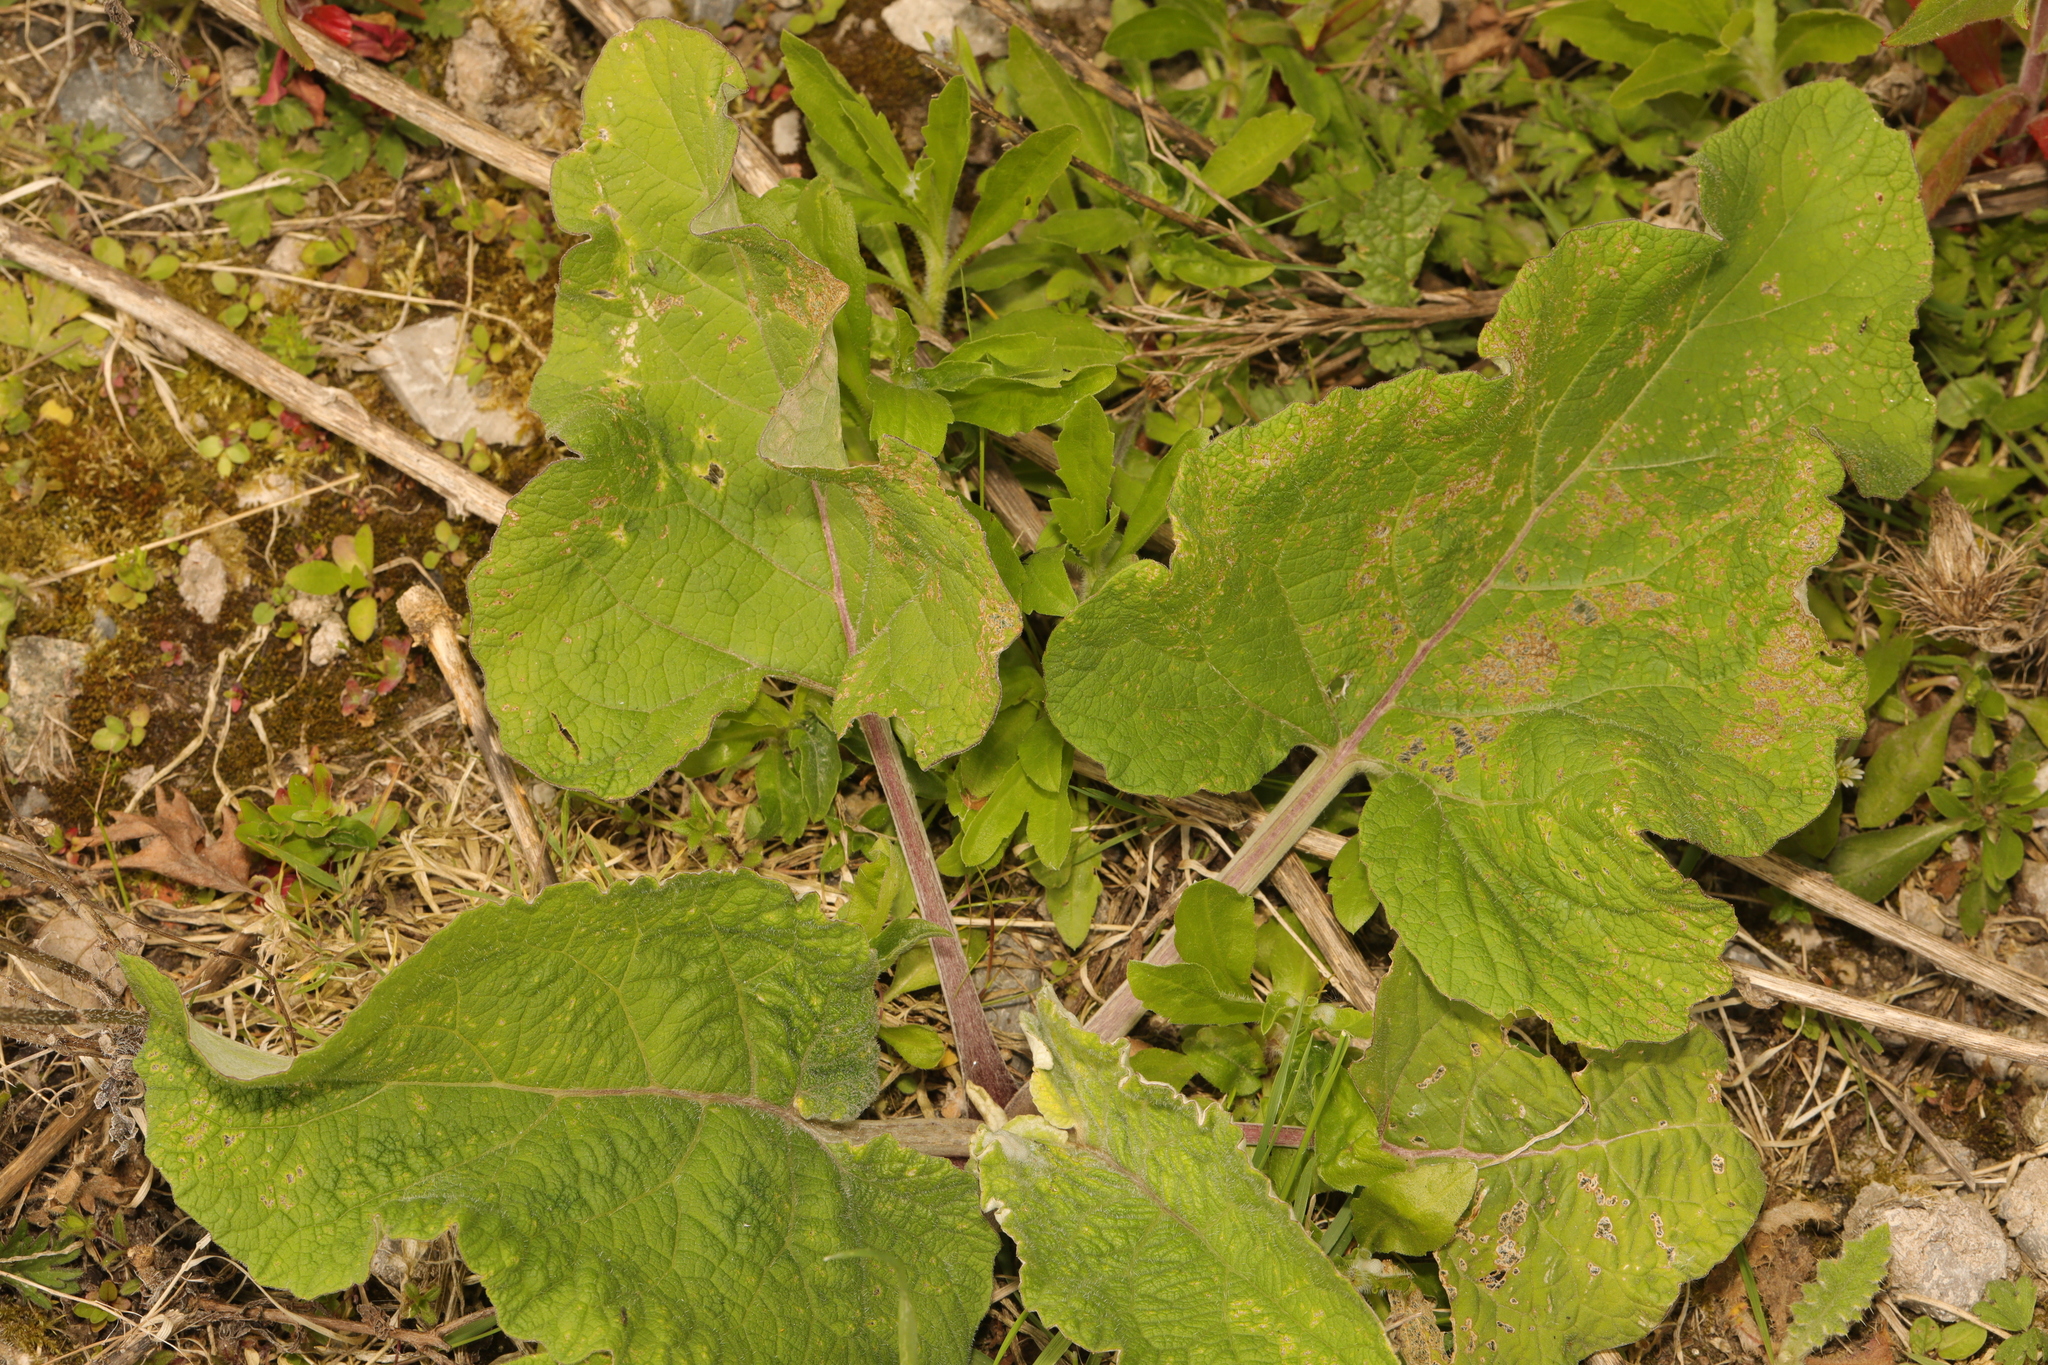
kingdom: Plantae
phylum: Tracheophyta
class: Magnoliopsida
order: Asterales
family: Asteraceae
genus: Arctium
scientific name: Arctium minus
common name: Lesser burdock
